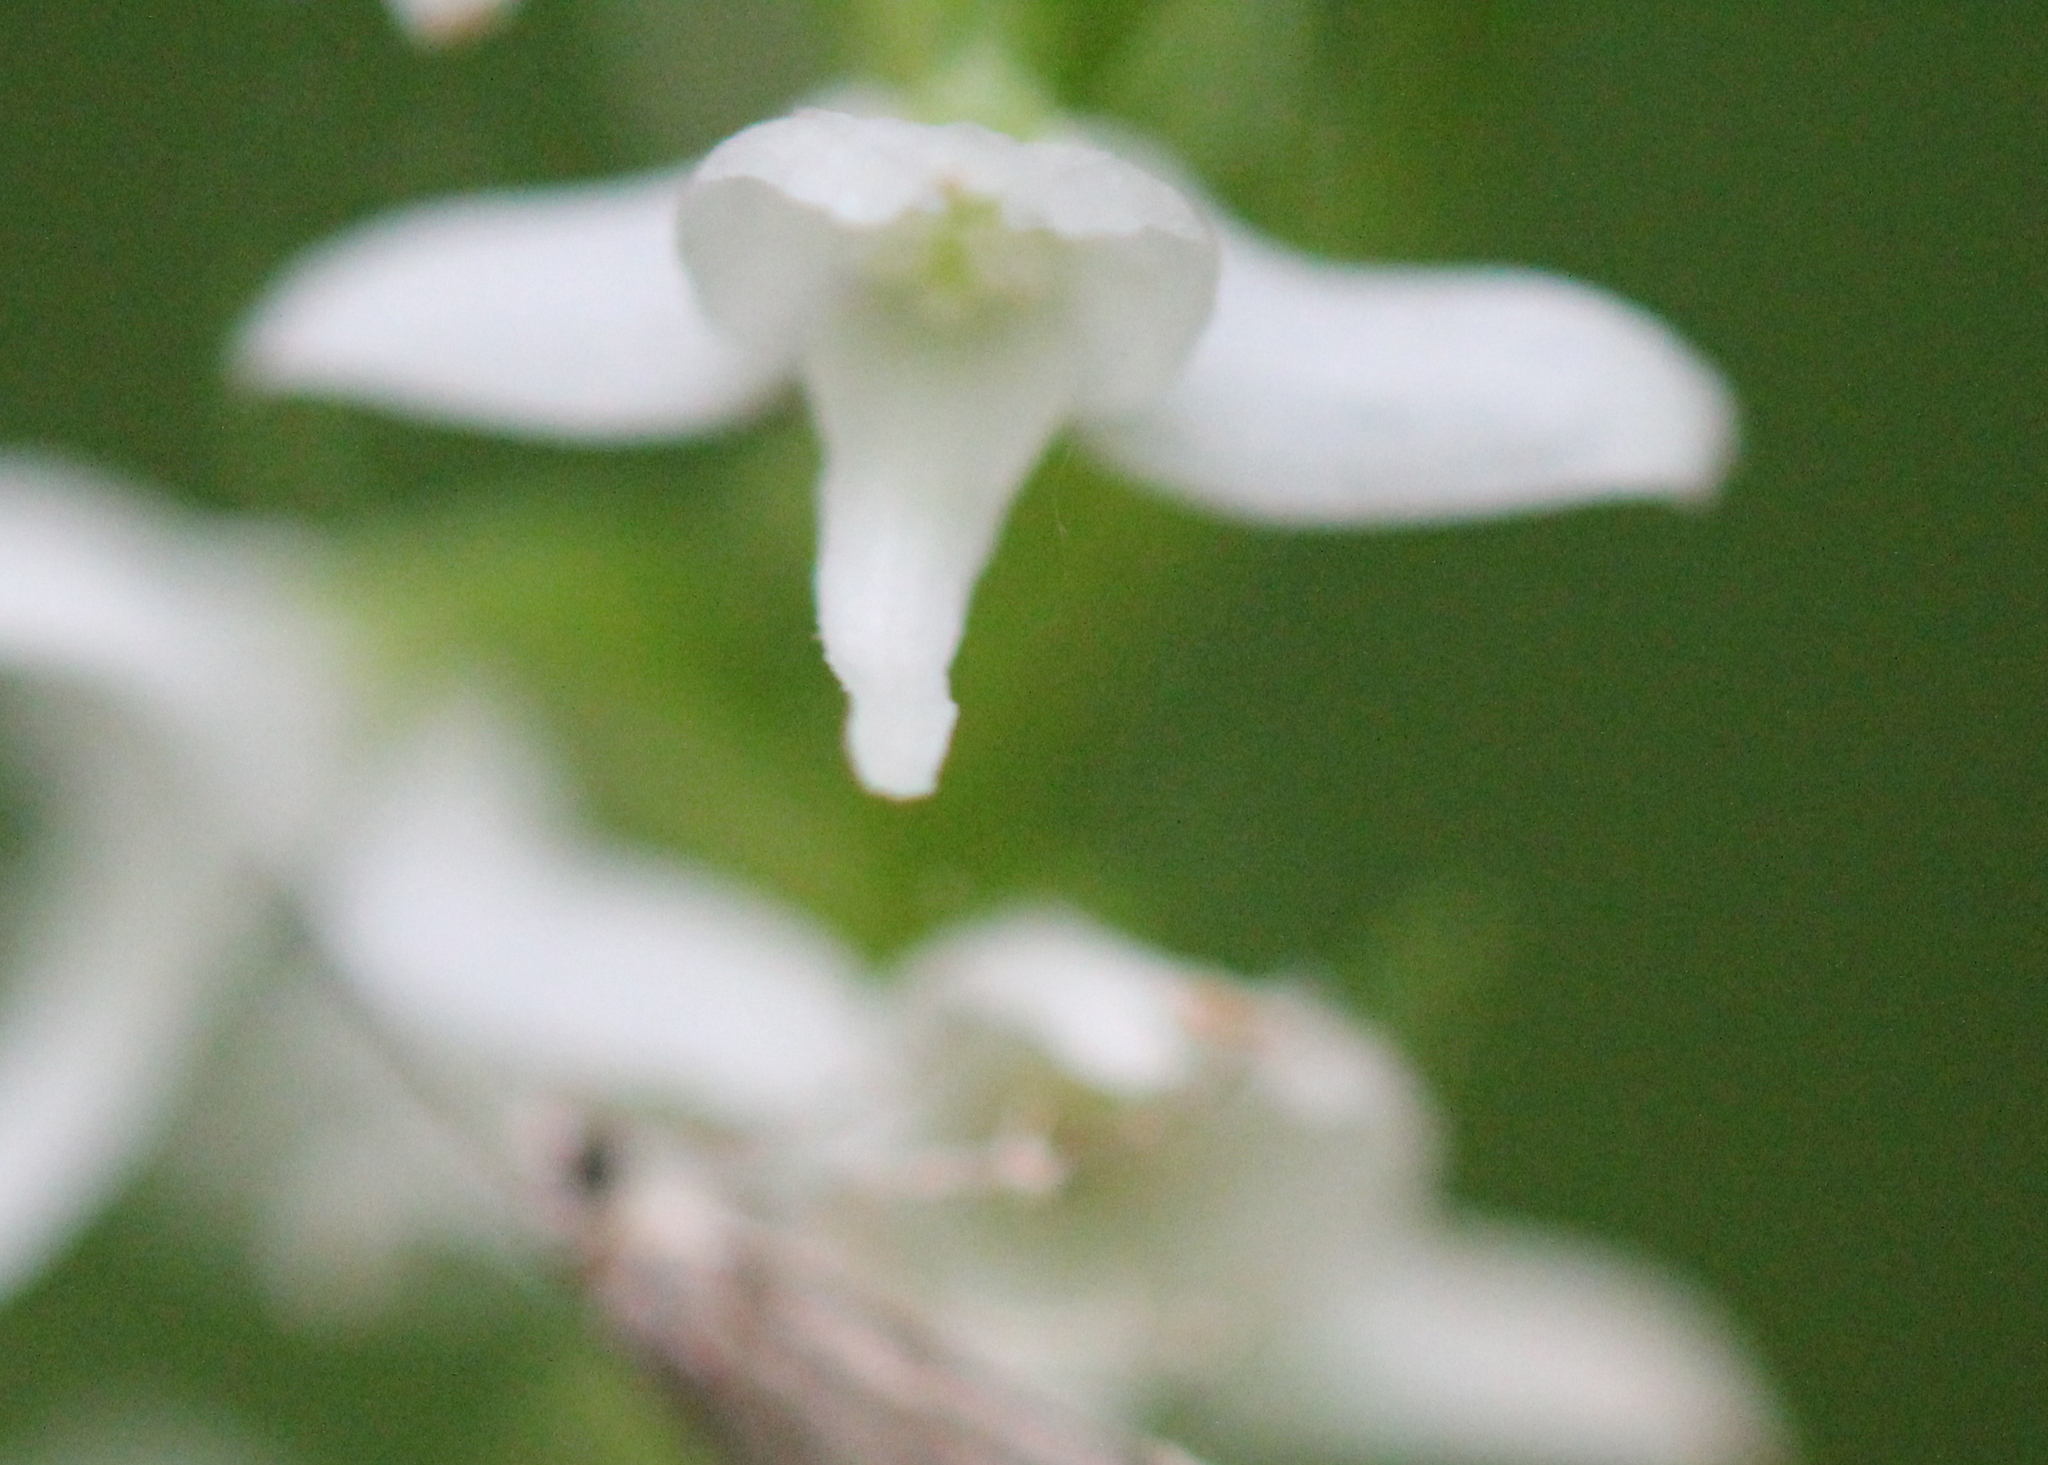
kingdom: Plantae
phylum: Tracheophyta
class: Liliopsida
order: Asparagales
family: Orchidaceae
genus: Platanthera
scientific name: Platanthera dilatata
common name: Bog candles
